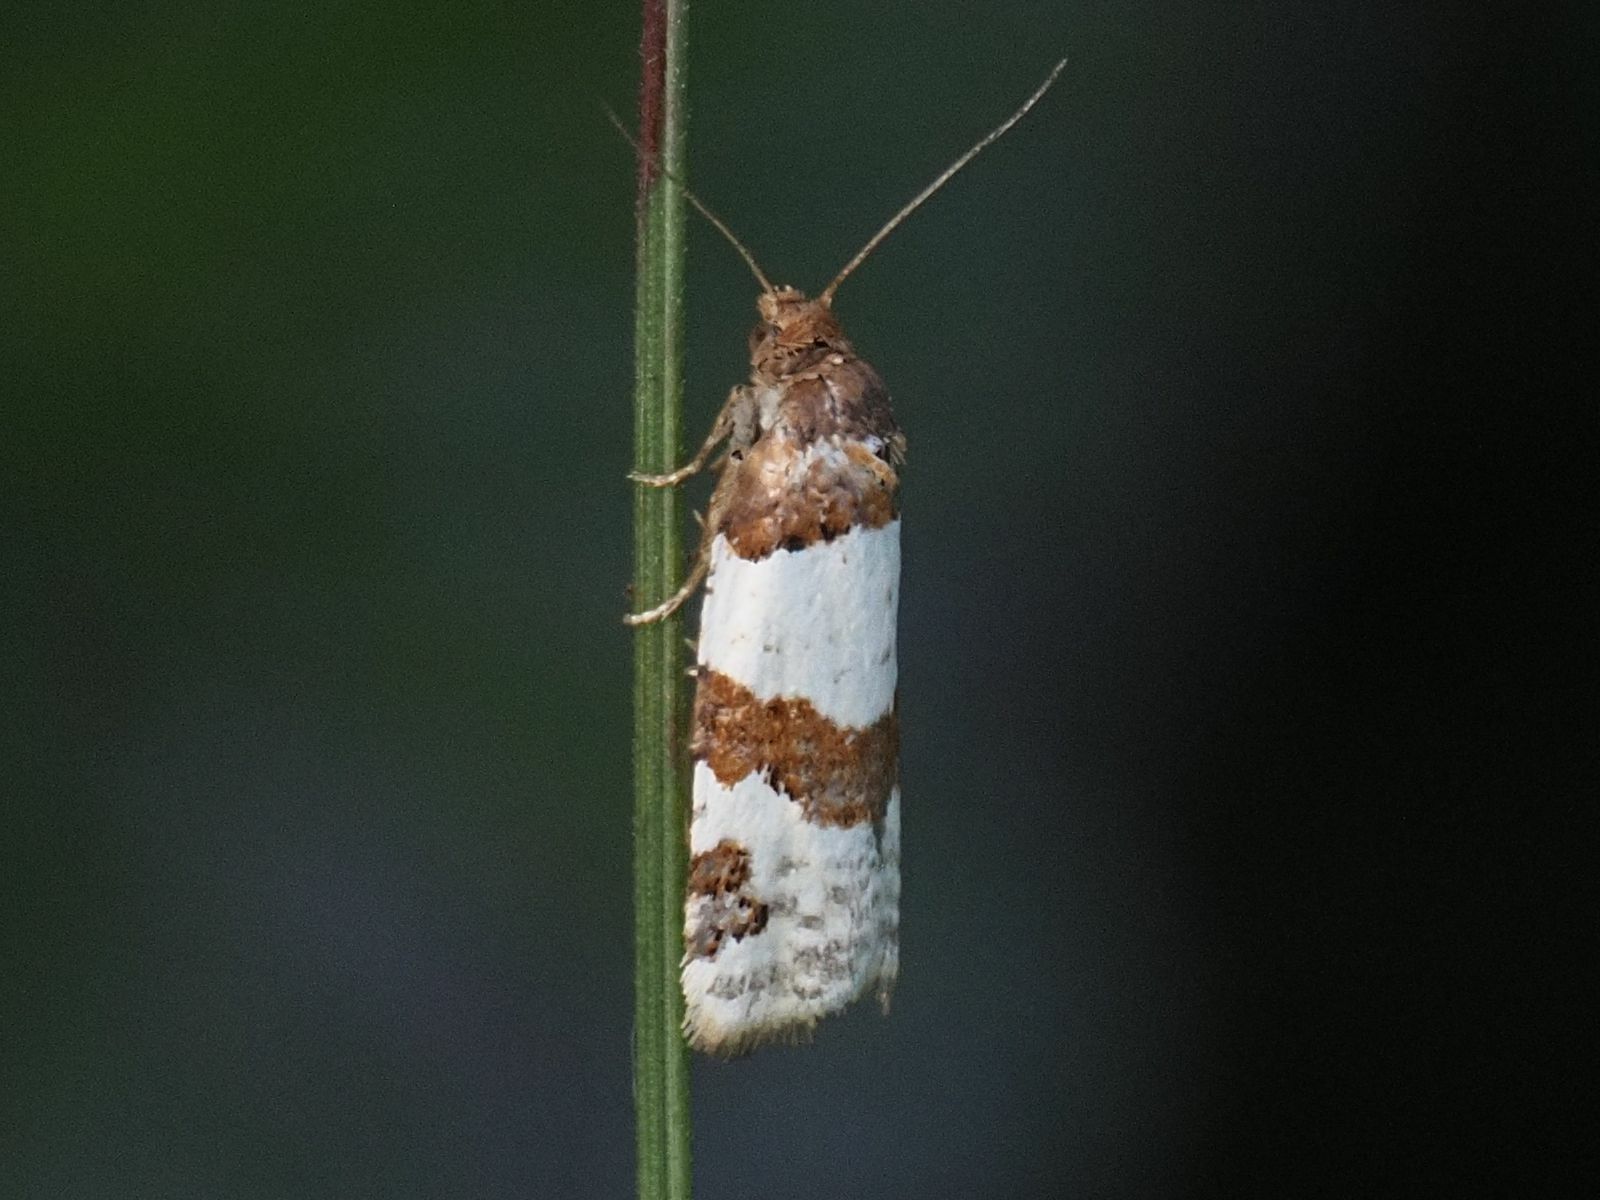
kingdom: Animalia
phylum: Arthropoda
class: Insecta
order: Lepidoptera
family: Tortricidae
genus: Periclepsis
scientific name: Periclepsis cinctana
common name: Dover twist
